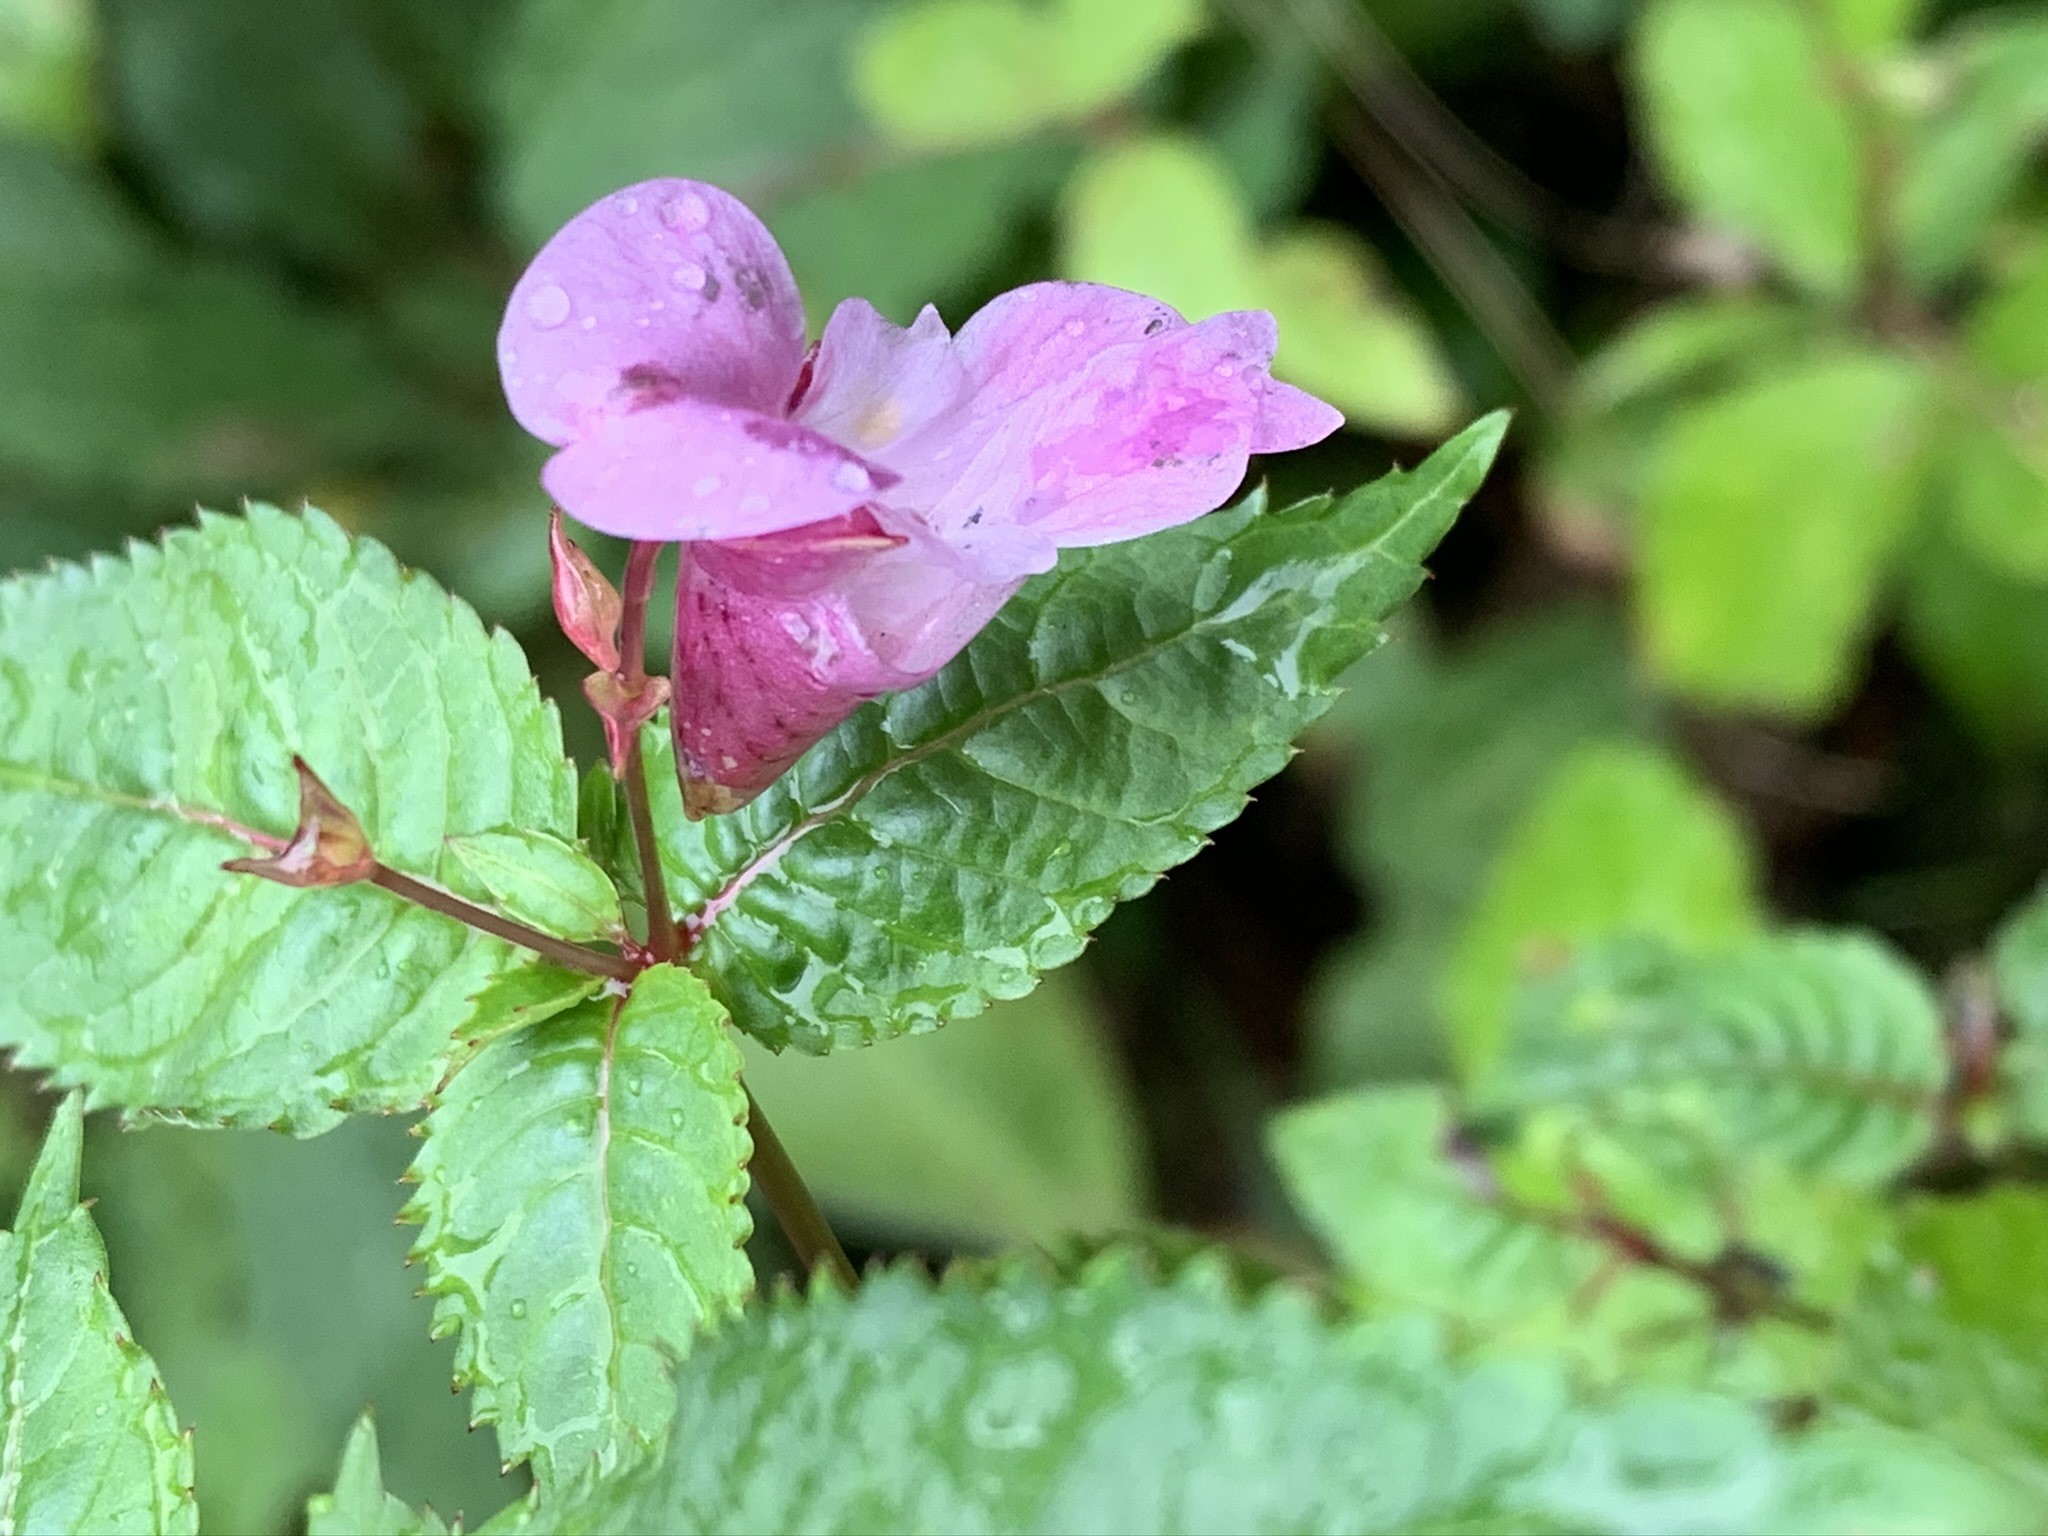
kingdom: Plantae
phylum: Tracheophyta
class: Magnoliopsida
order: Ericales
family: Balsaminaceae
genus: Impatiens
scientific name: Impatiens glandulifera
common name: Himalayan balsam
